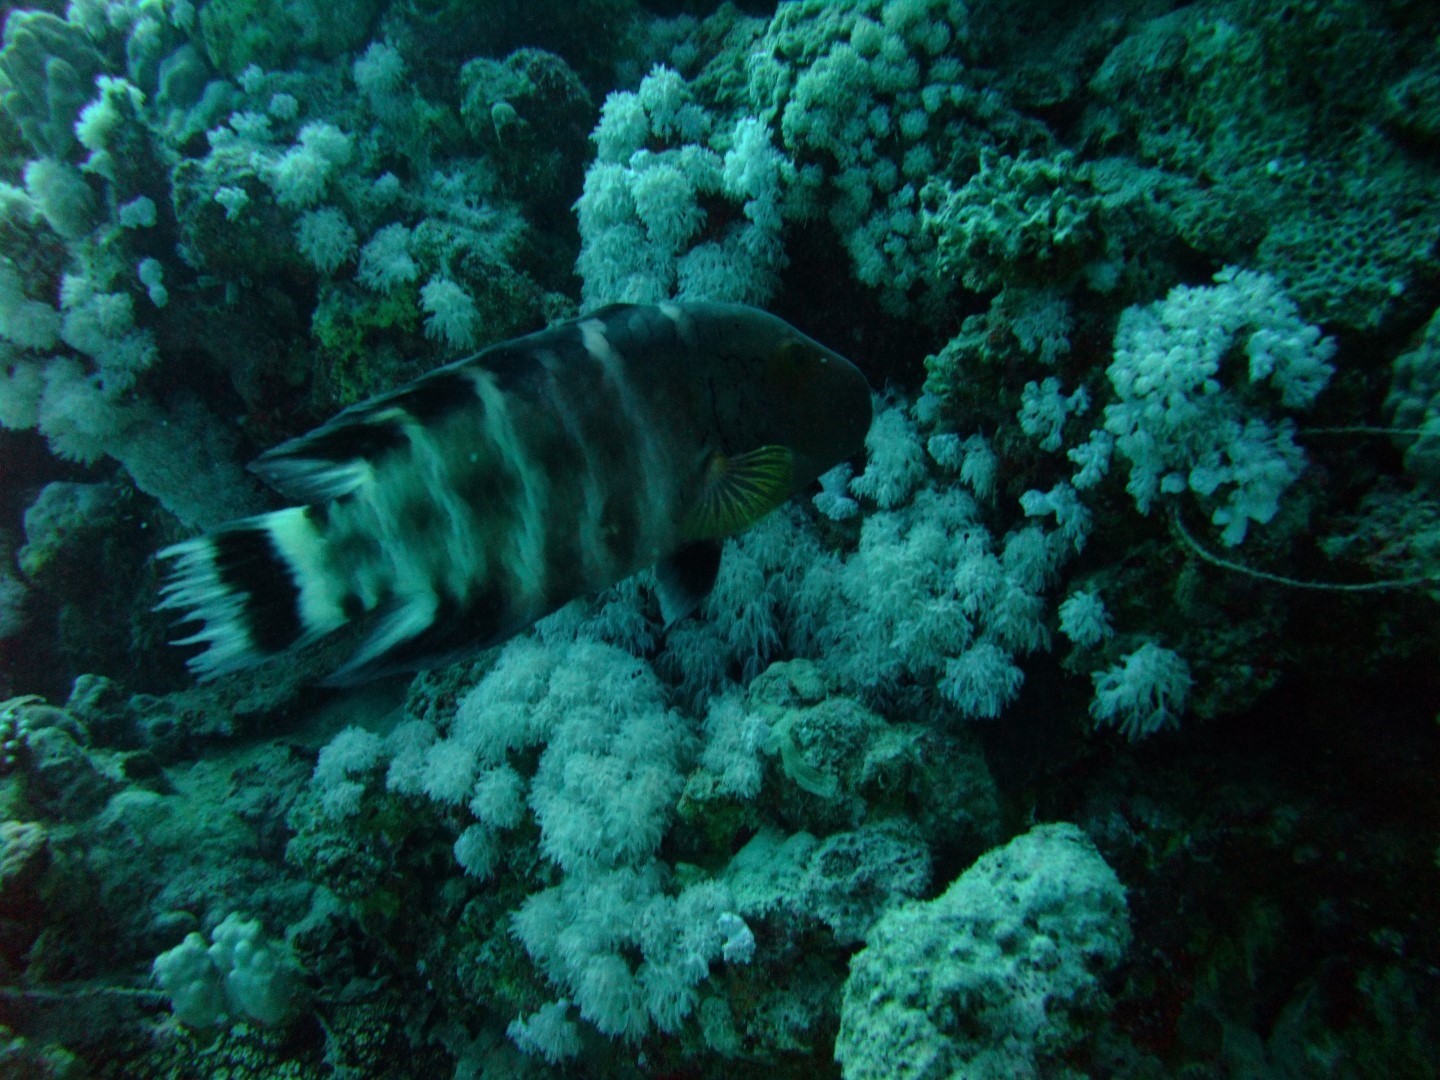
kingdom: Animalia
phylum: Chordata
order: Perciformes
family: Labridae
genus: Cheilinus
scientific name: Cheilinus fasciatus
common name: Red-breasted wrasse
